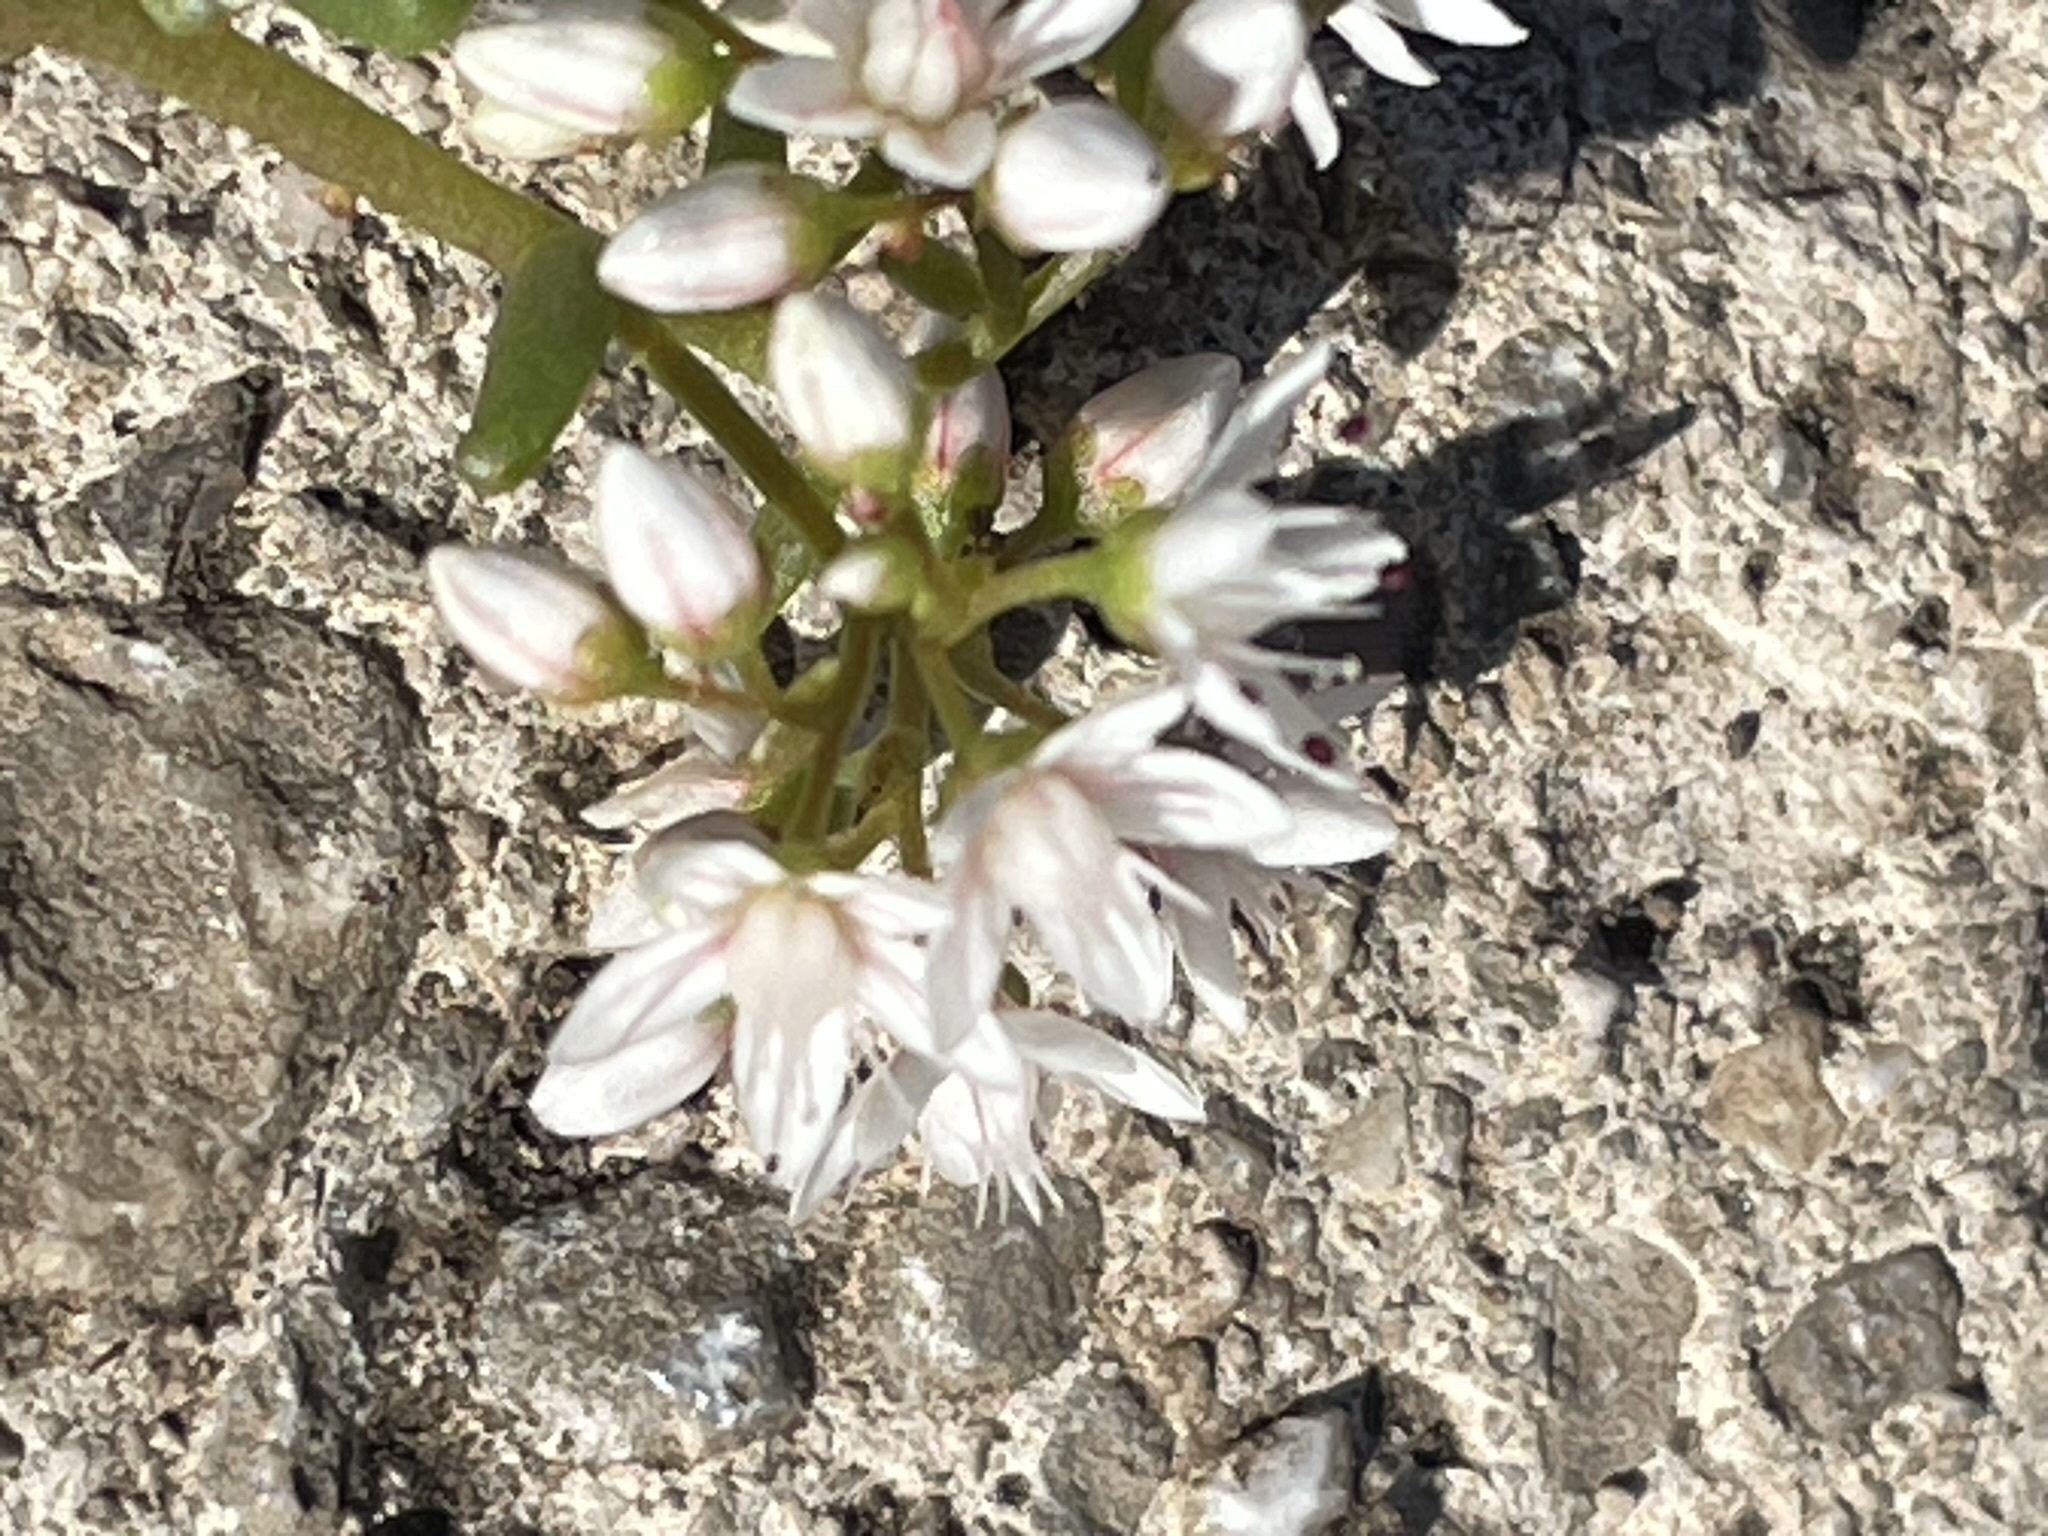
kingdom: Plantae
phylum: Tracheophyta
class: Magnoliopsida
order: Saxifragales
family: Crassulaceae
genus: Sedum
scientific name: Sedum album
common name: White stonecrop
